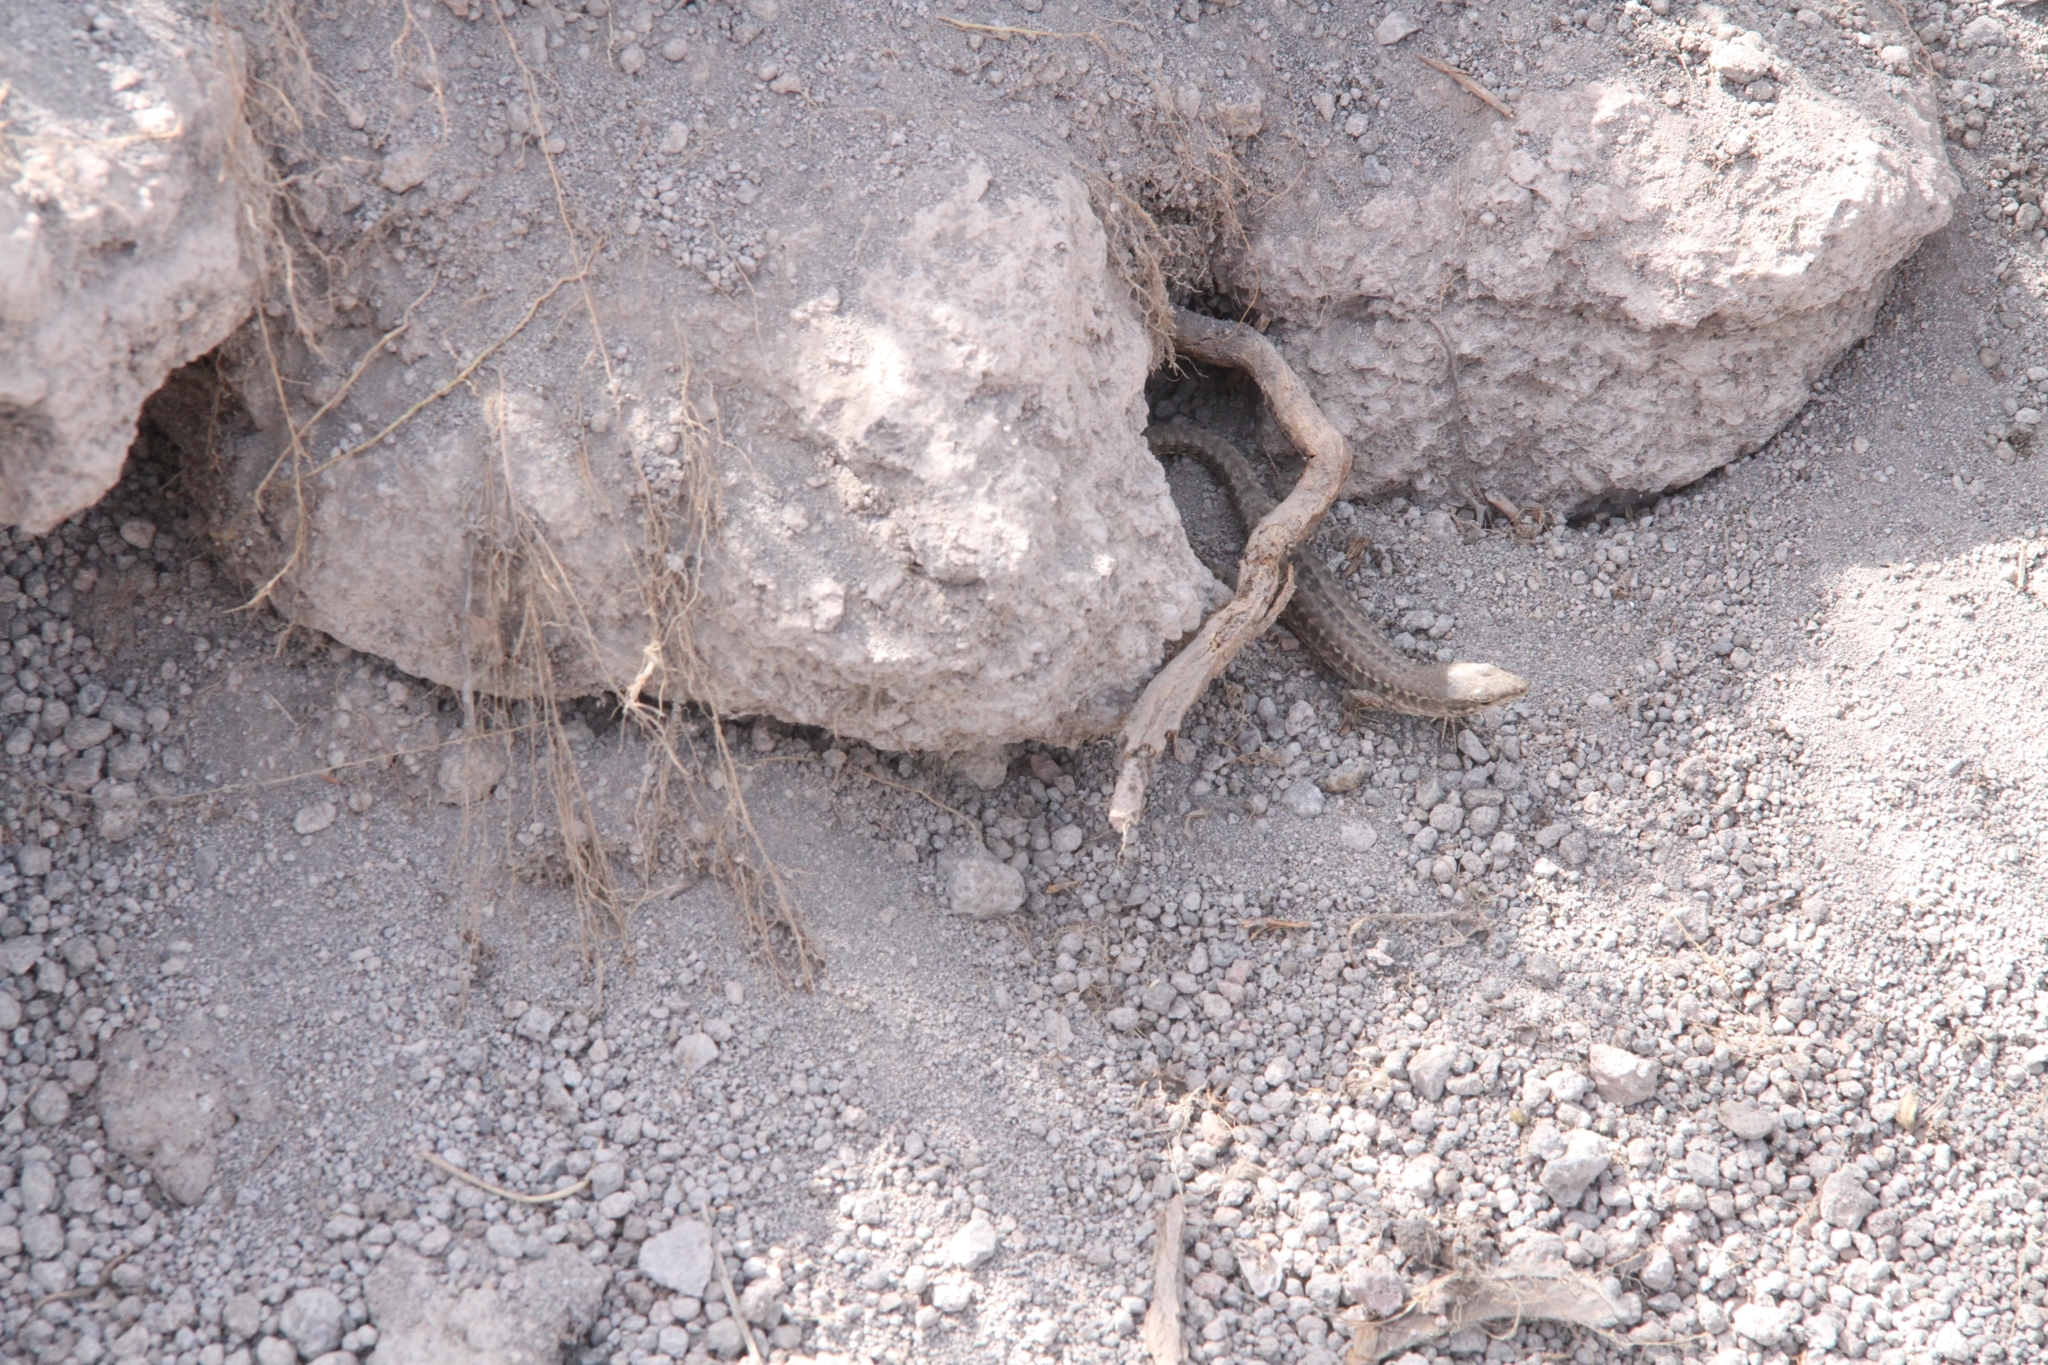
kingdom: Animalia
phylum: Chordata
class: Squamata
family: Lacertidae
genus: Podarcis
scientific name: Podarcis siculus
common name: Italian wall lizard
